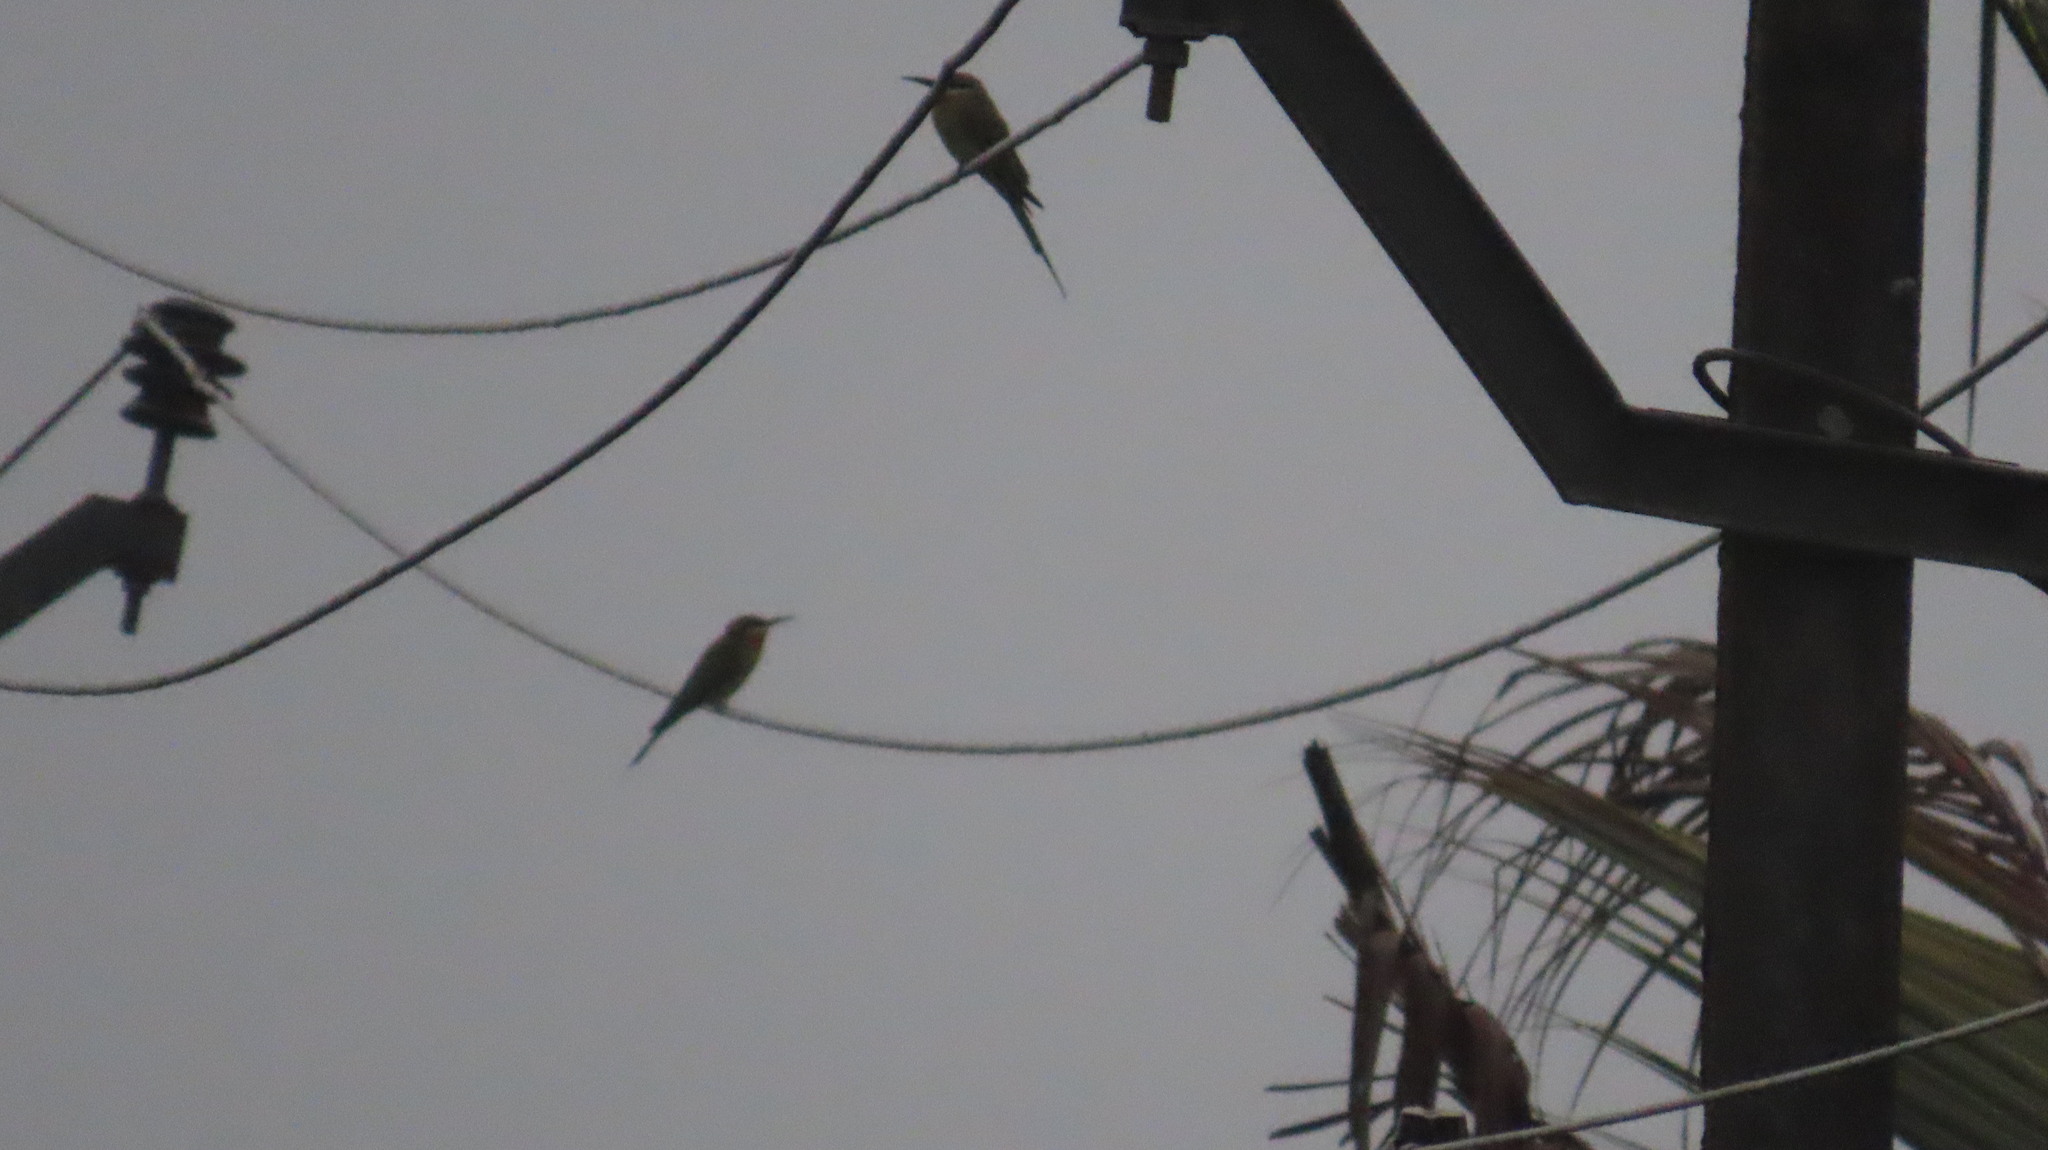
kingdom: Animalia
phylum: Chordata
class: Aves
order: Coraciiformes
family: Meropidae
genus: Merops
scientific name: Merops philippinus
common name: Blue-tailed bee-eater
